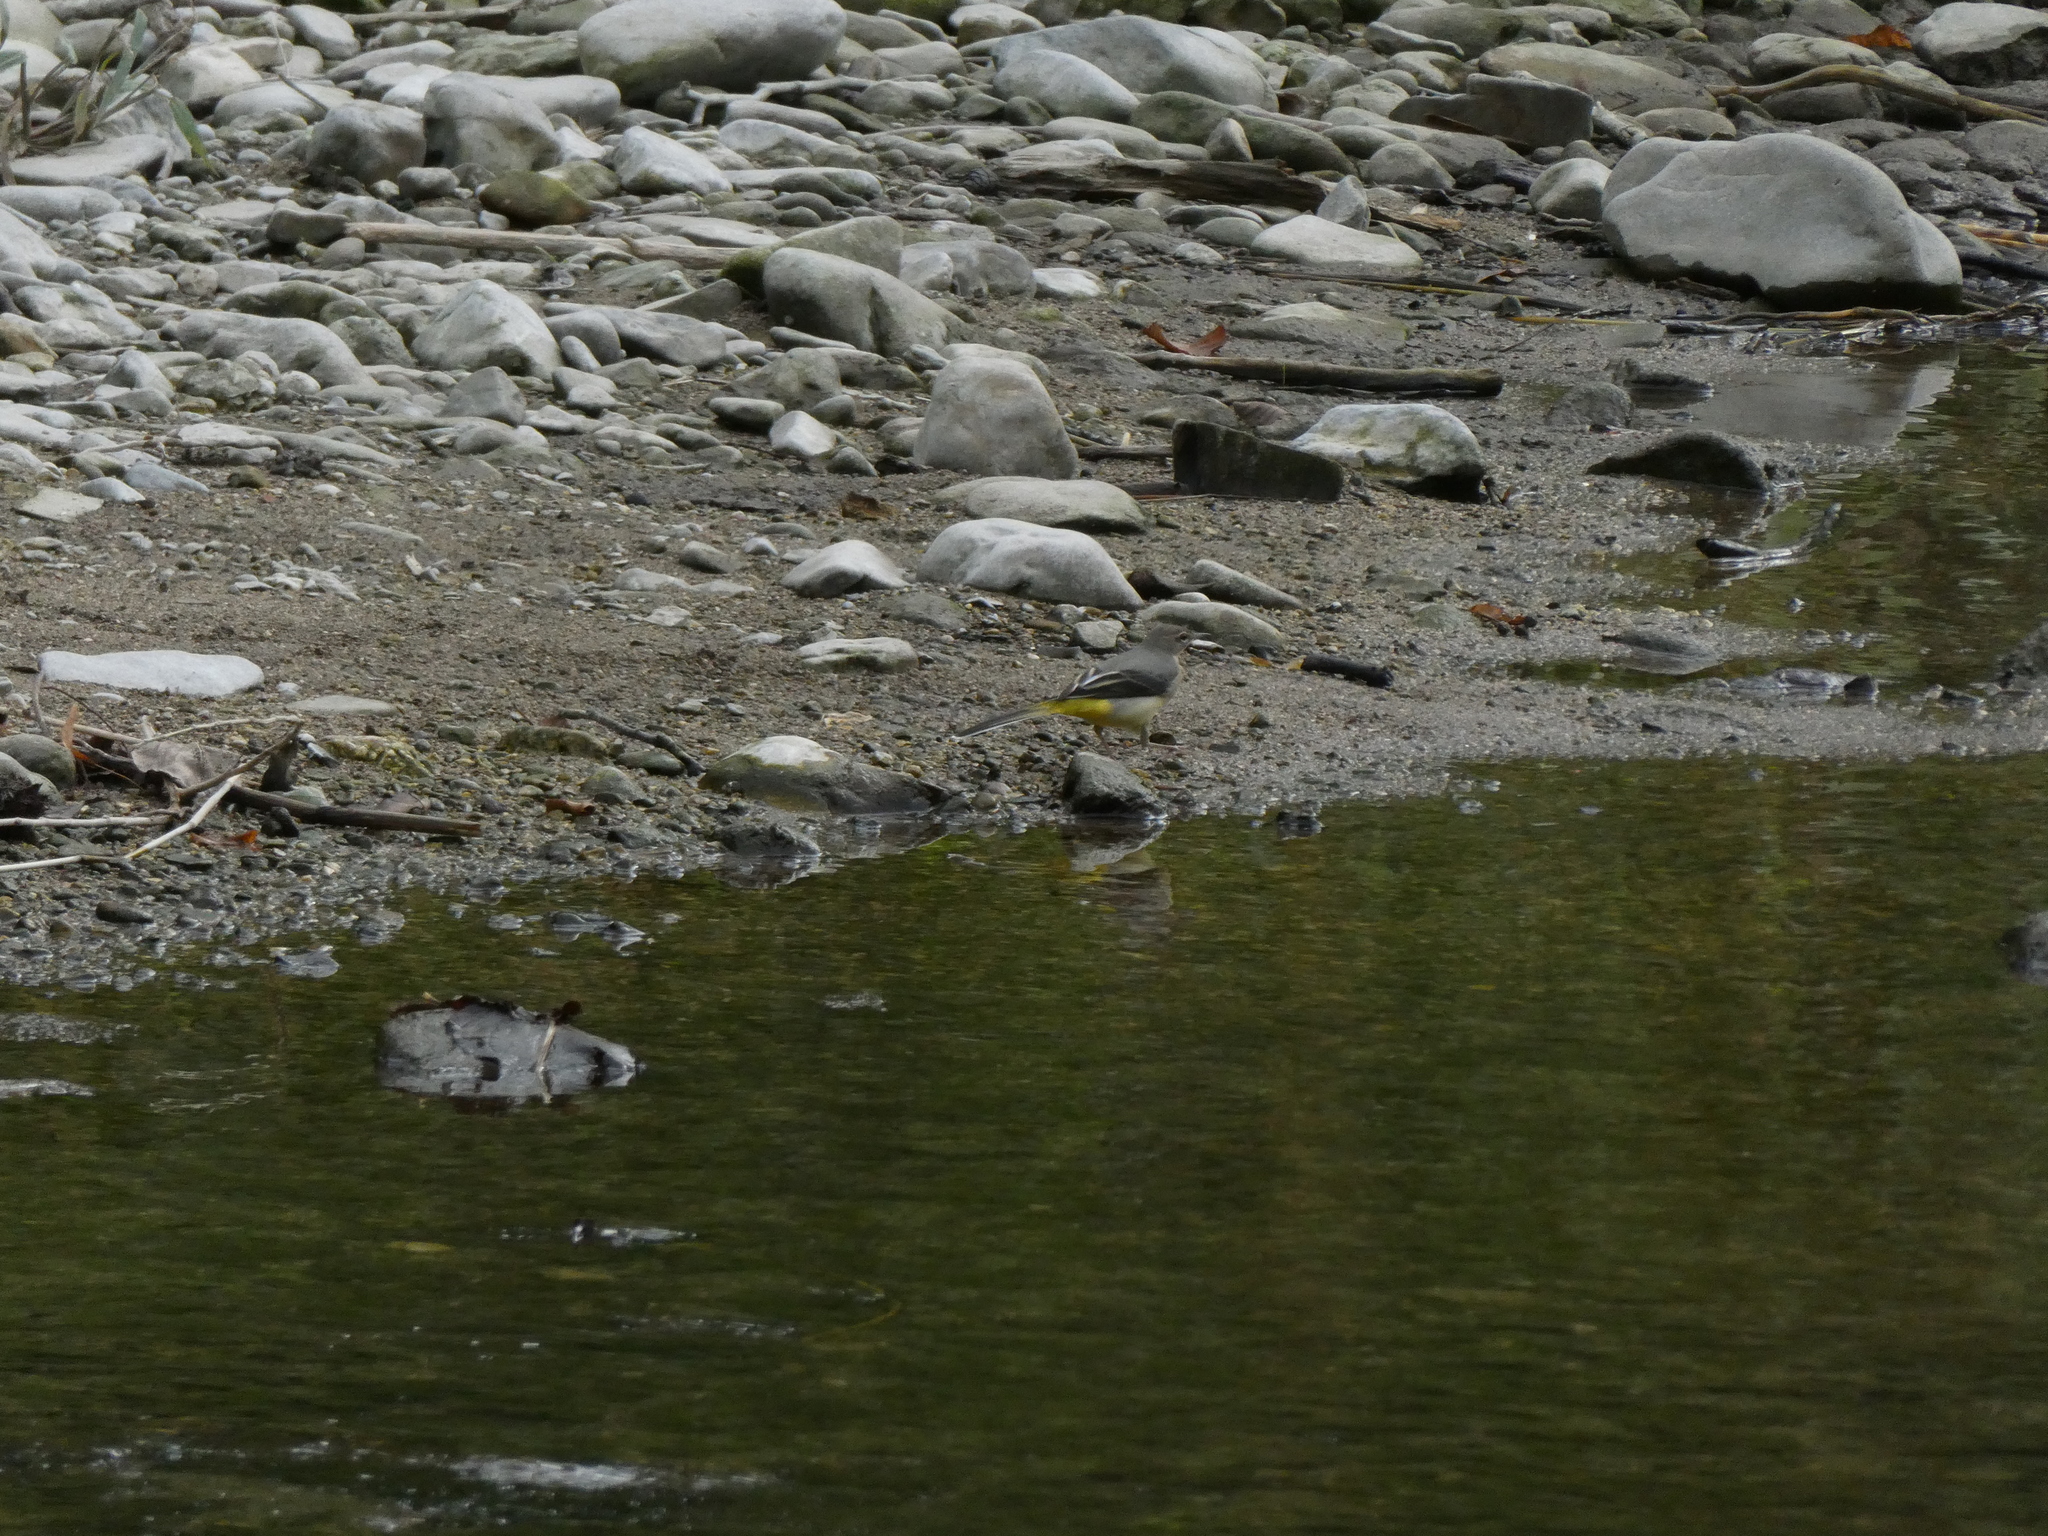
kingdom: Animalia
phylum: Chordata
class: Aves
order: Passeriformes
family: Motacillidae
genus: Motacilla
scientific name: Motacilla cinerea
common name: Grey wagtail
